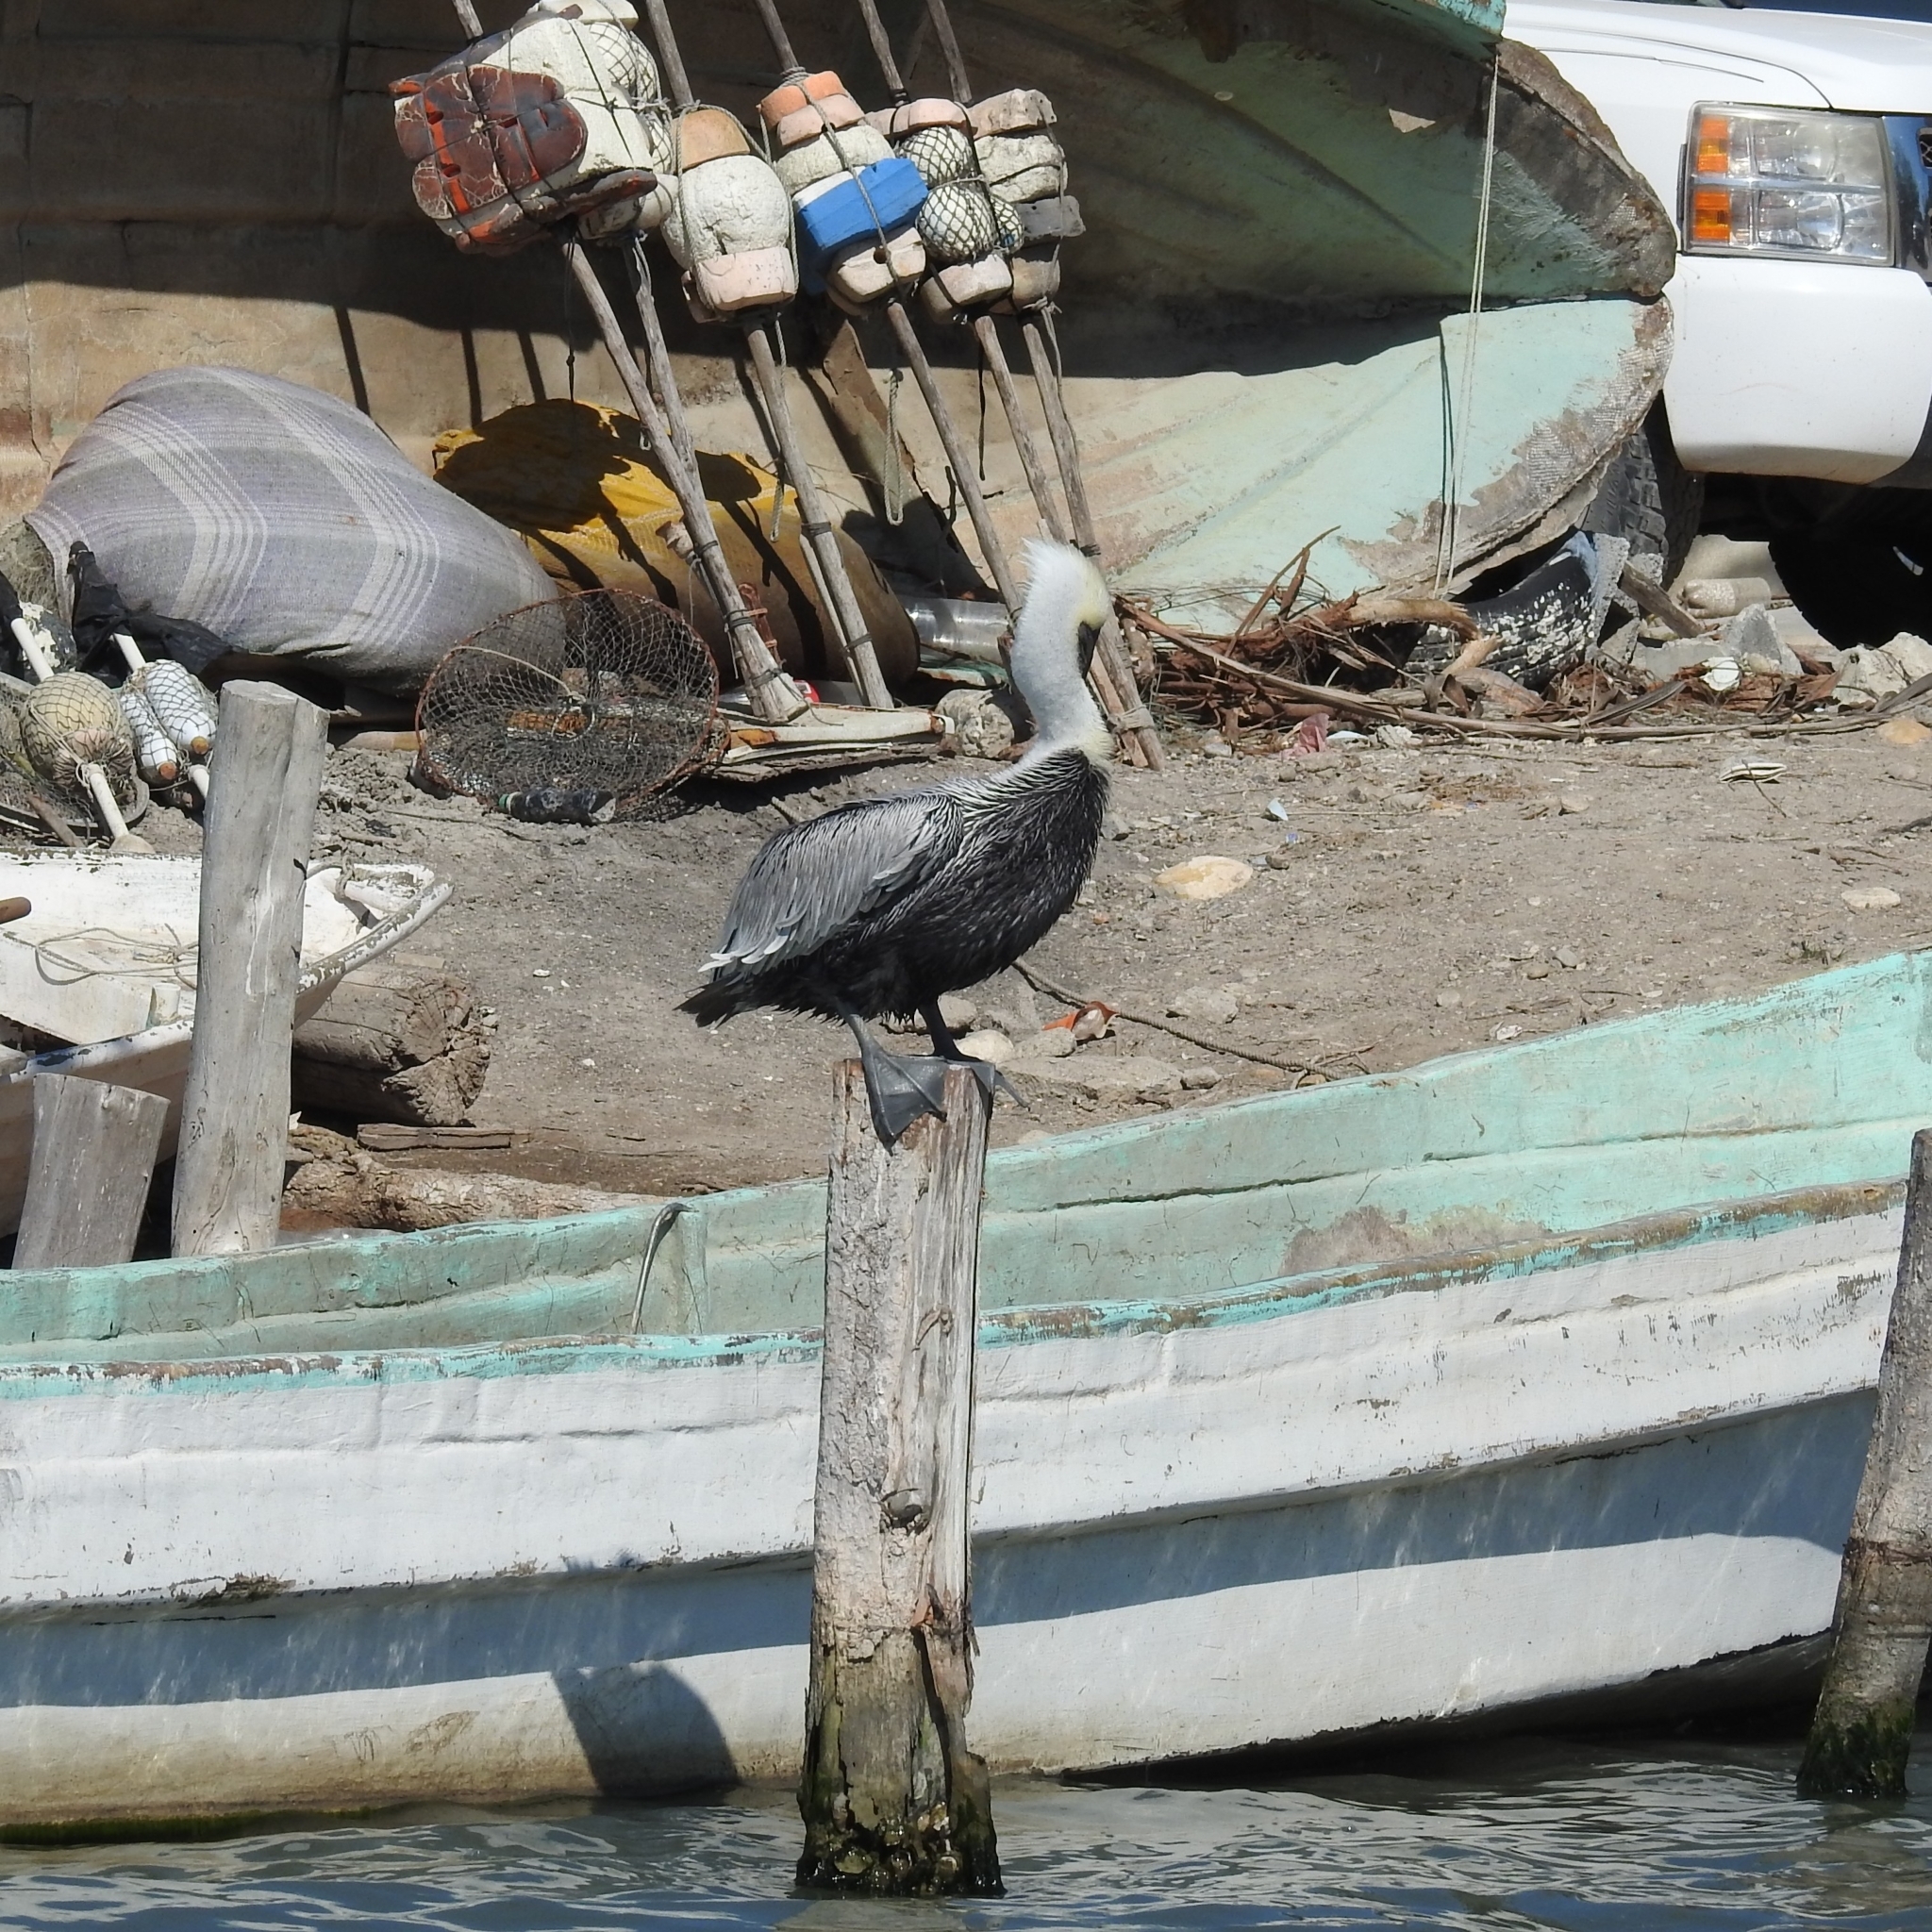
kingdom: Animalia
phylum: Chordata
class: Aves
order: Pelecaniformes
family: Pelecanidae
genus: Pelecanus
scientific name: Pelecanus occidentalis
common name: Brown pelican
